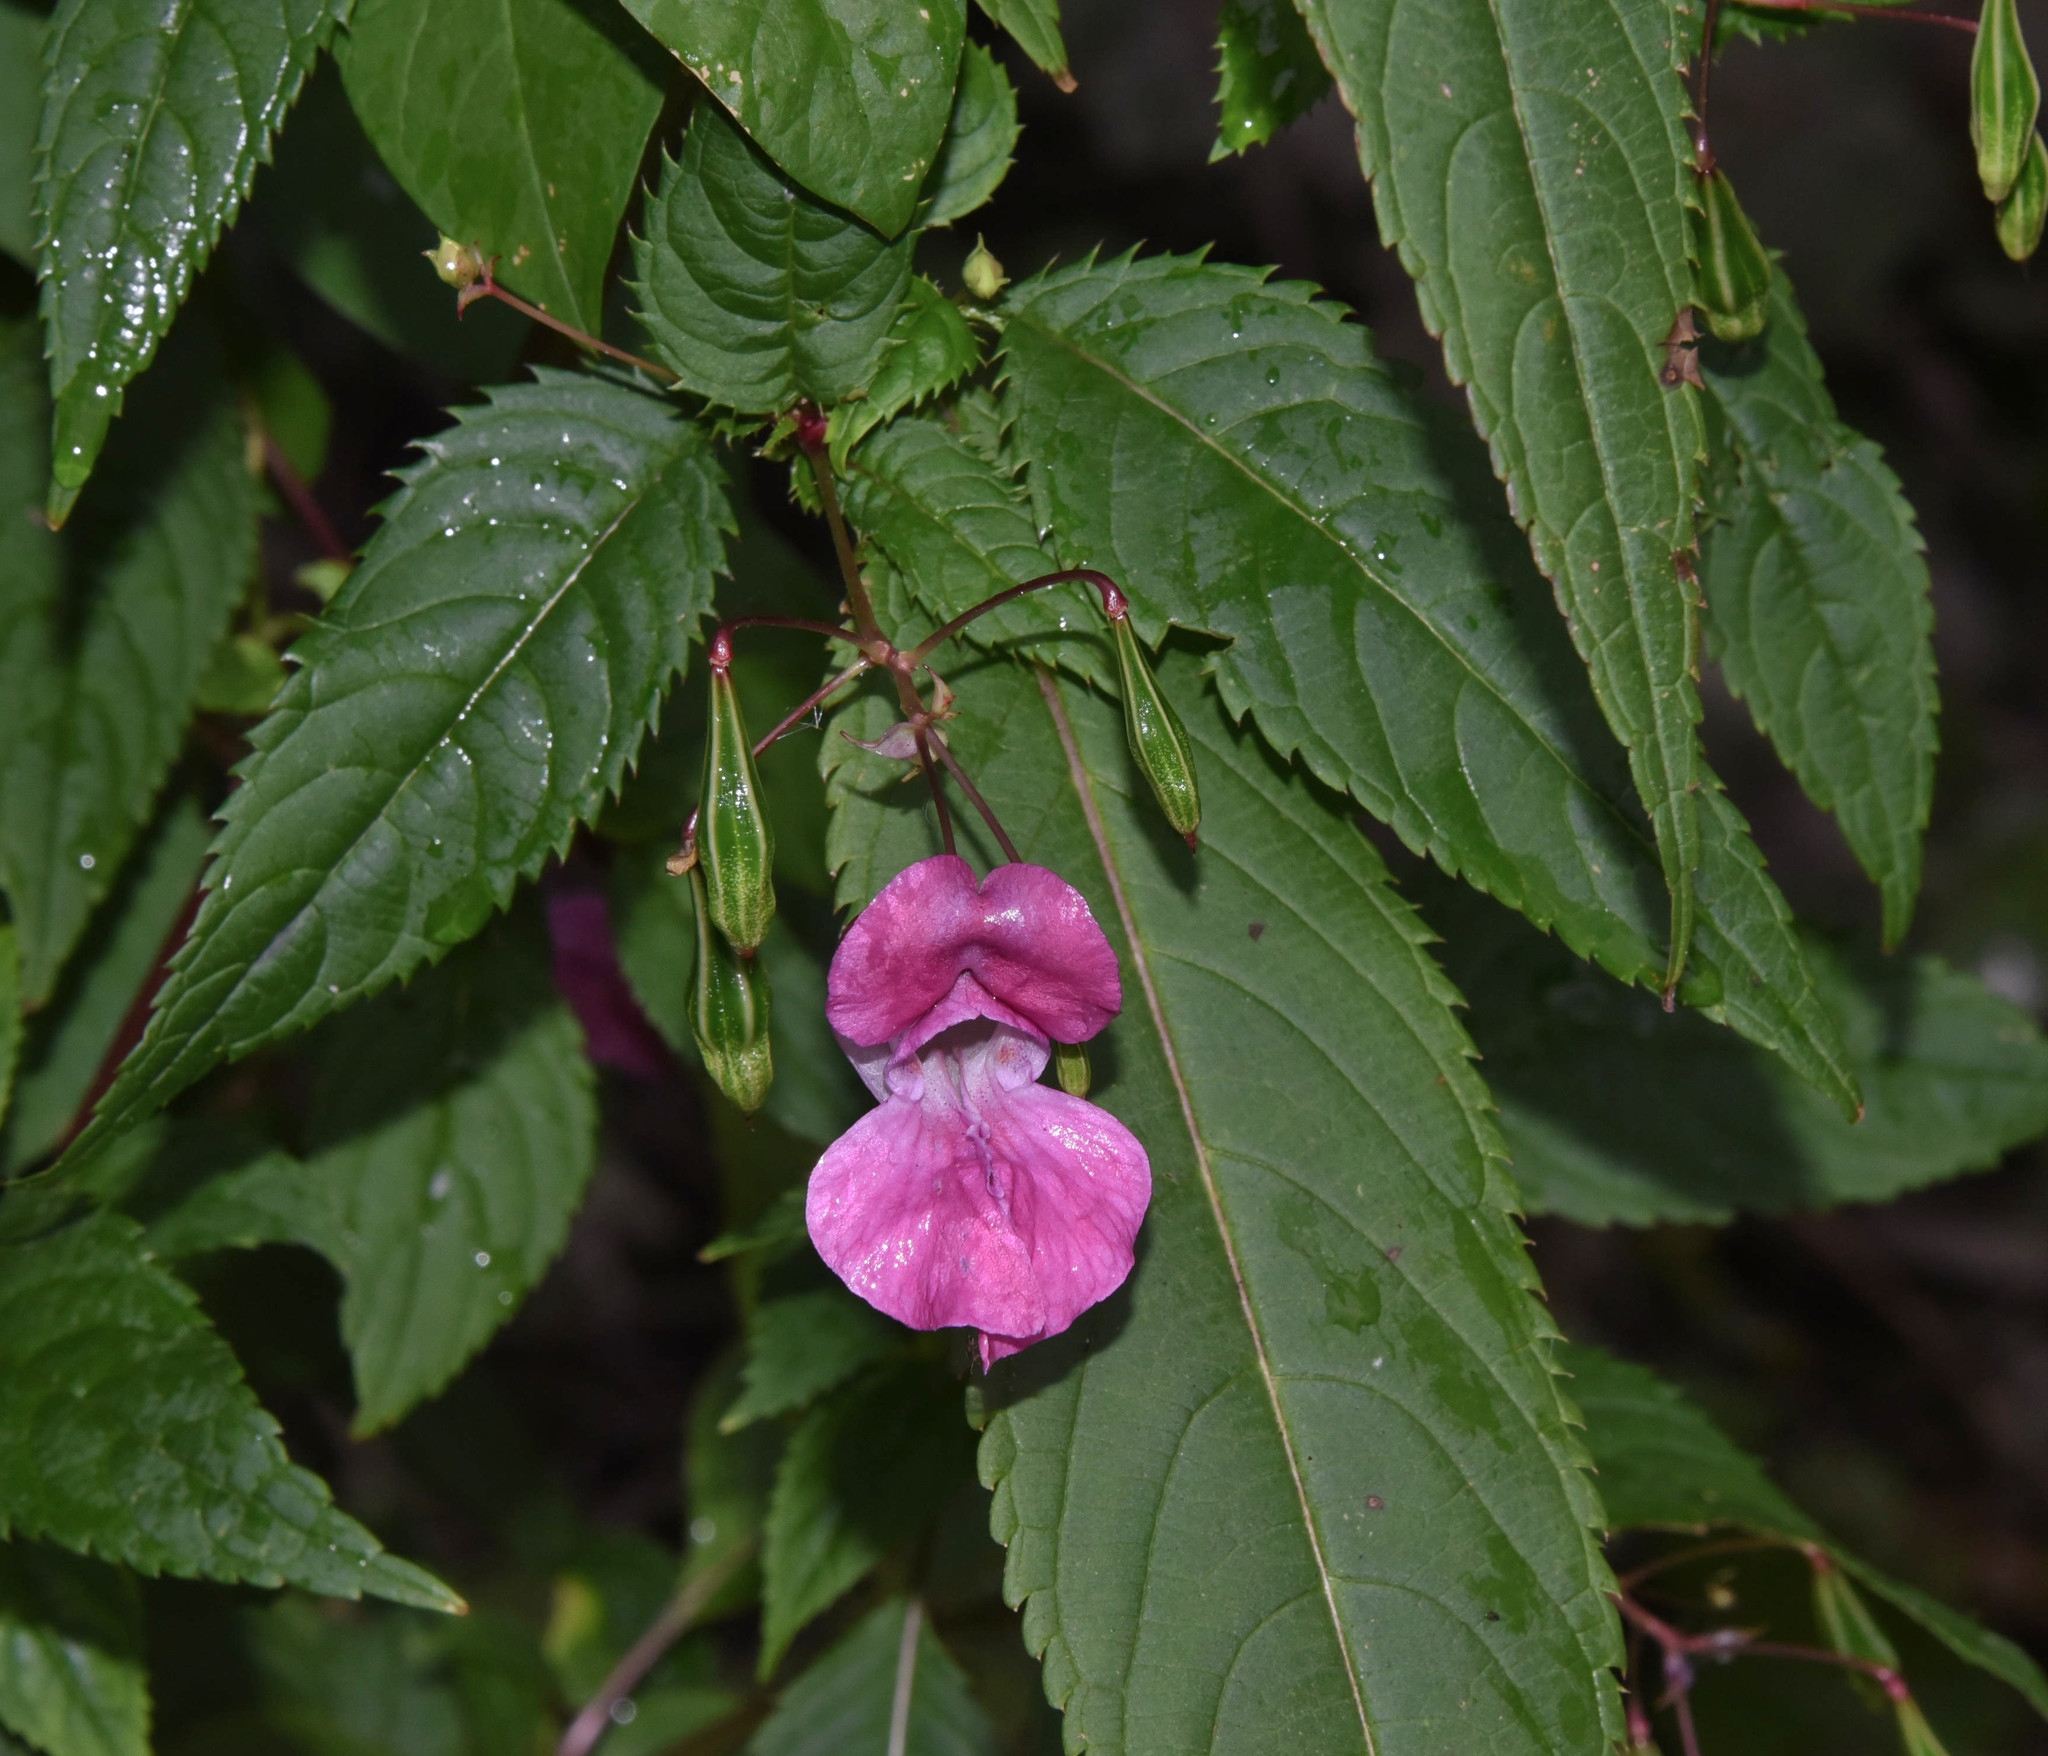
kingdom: Plantae
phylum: Tracheophyta
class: Magnoliopsida
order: Ericales
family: Balsaminaceae
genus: Impatiens
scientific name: Impatiens glandulifera
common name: Himalayan balsam
